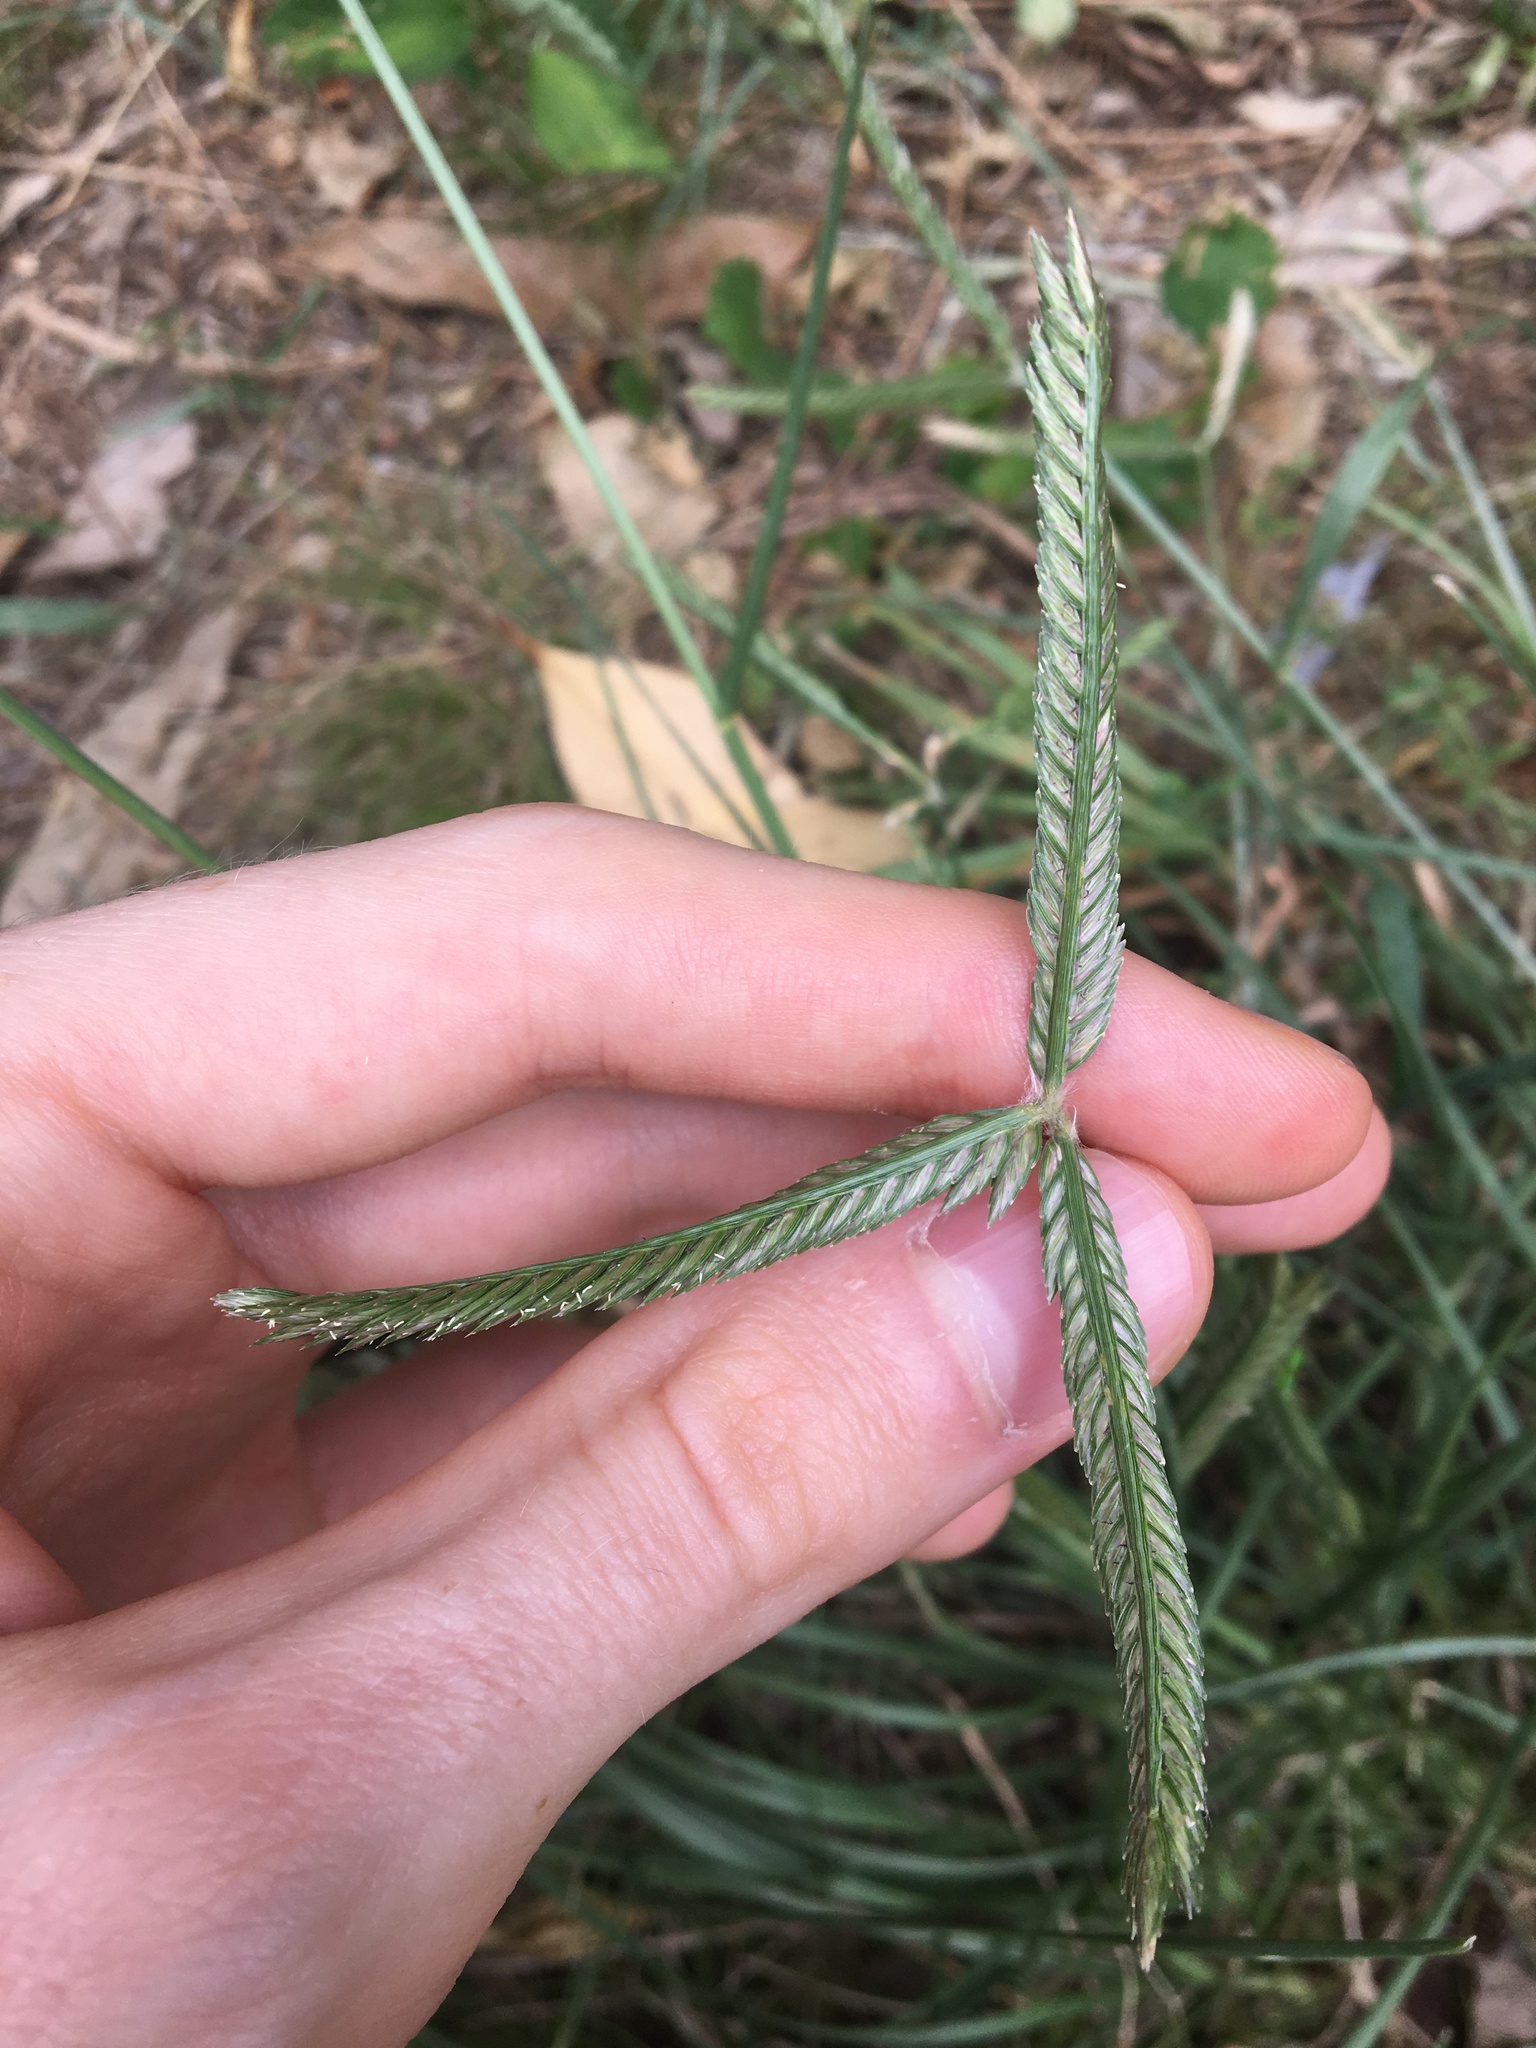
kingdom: Plantae
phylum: Tracheophyta
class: Liliopsida
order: Poales
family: Poaceae
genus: Eleusine
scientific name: Eleusine indica
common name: Yard-grass
